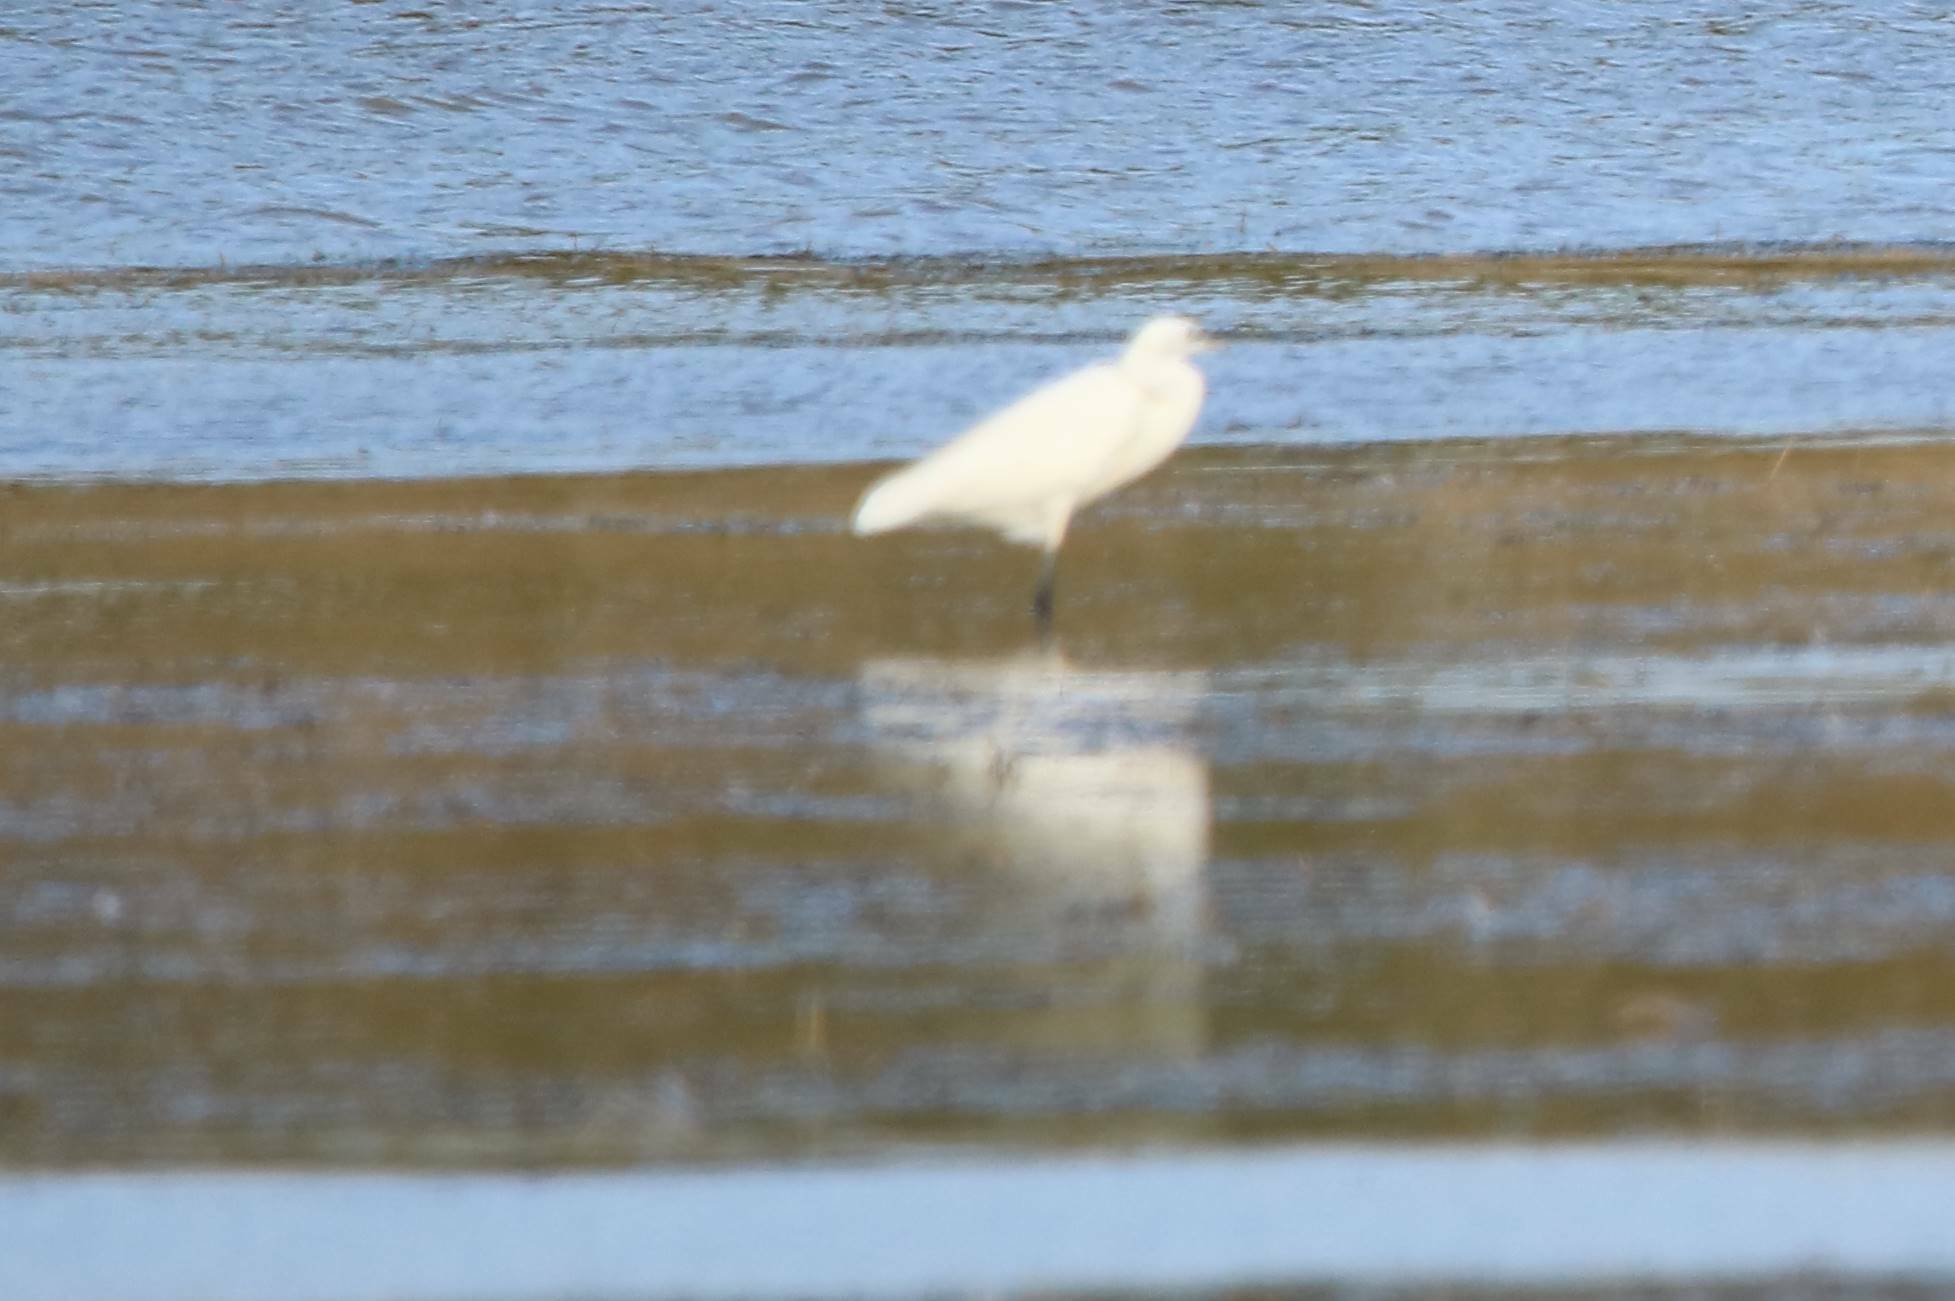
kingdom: Animalia
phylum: Chordata
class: Aves
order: Pelecaniformes
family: Ardeidae
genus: Egretta
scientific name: Egretta garzetta
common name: Little egret
